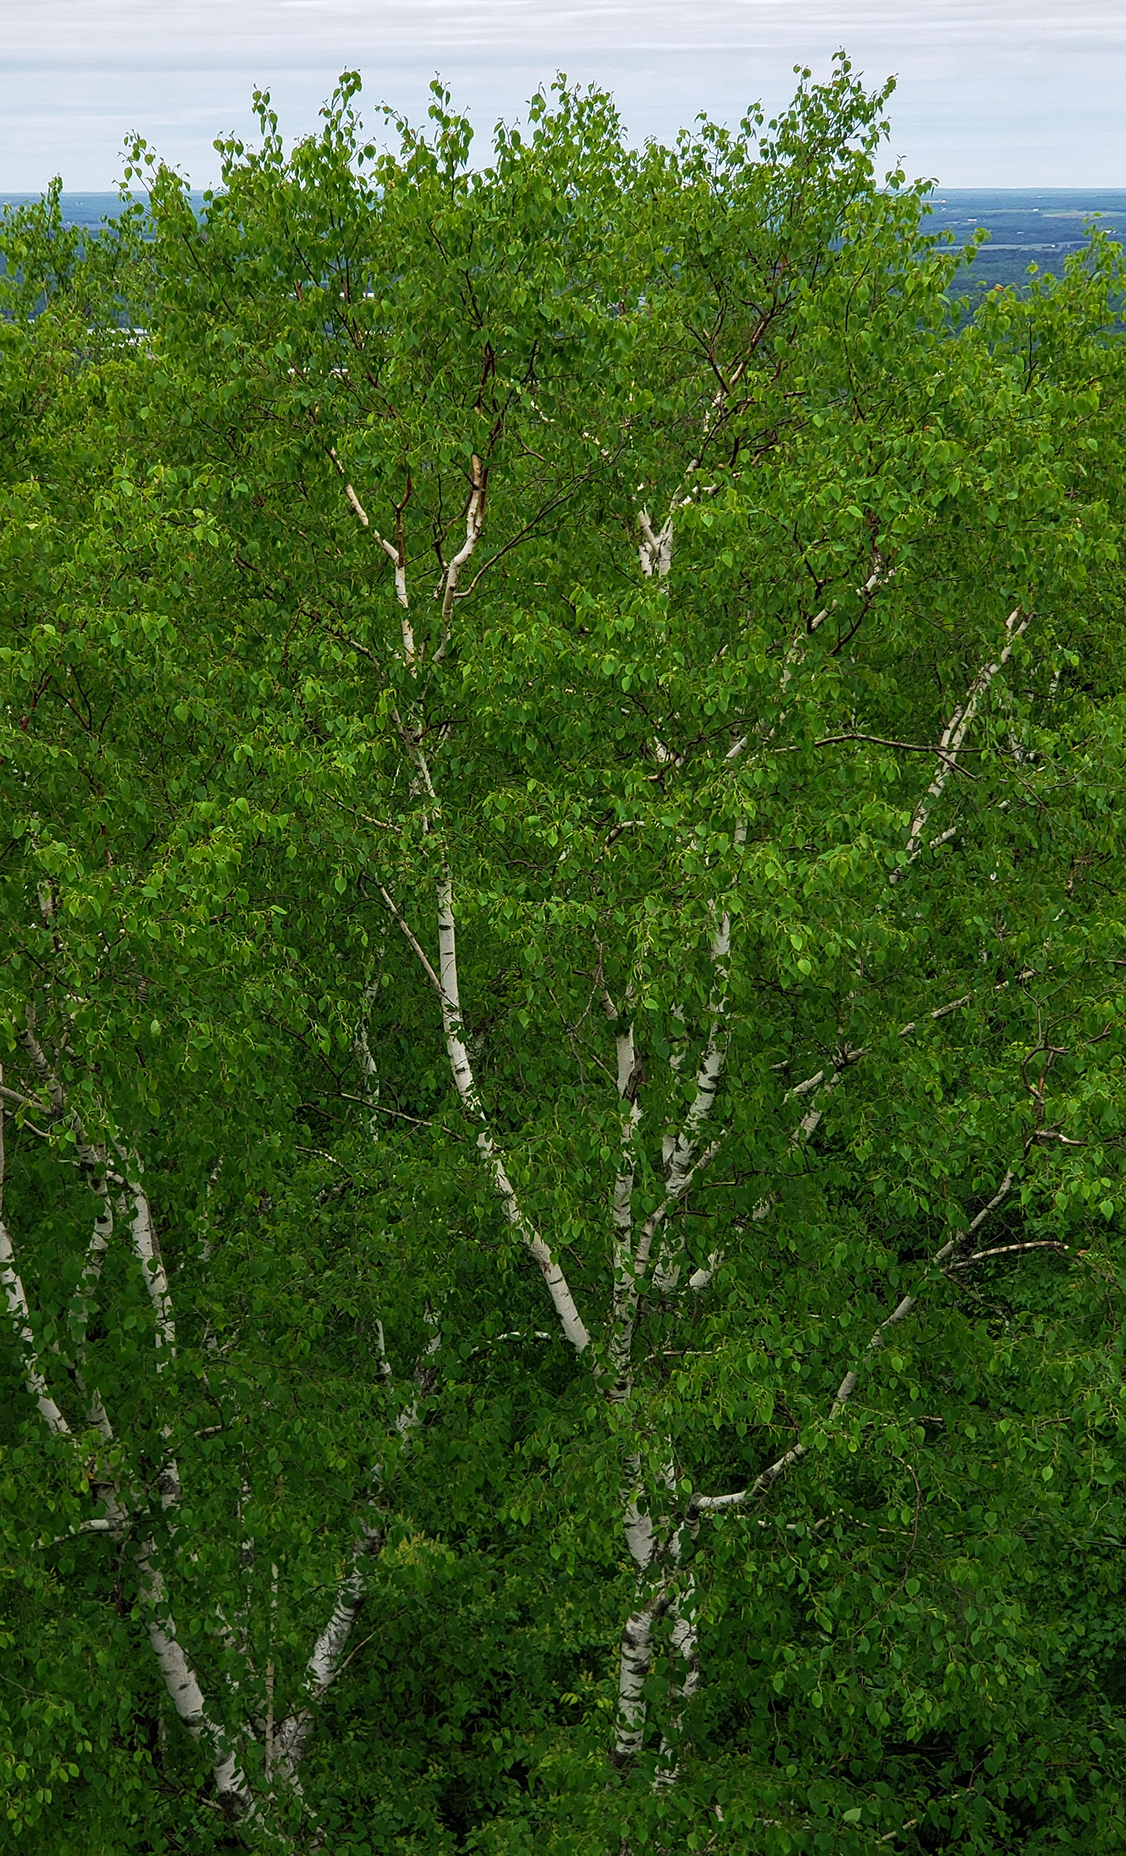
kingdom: Plantae
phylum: Tracheophyta
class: Magnoliopsida
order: Fagales
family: Betulaceae
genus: Betula
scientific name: Betula papyrifera
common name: Paper birch
